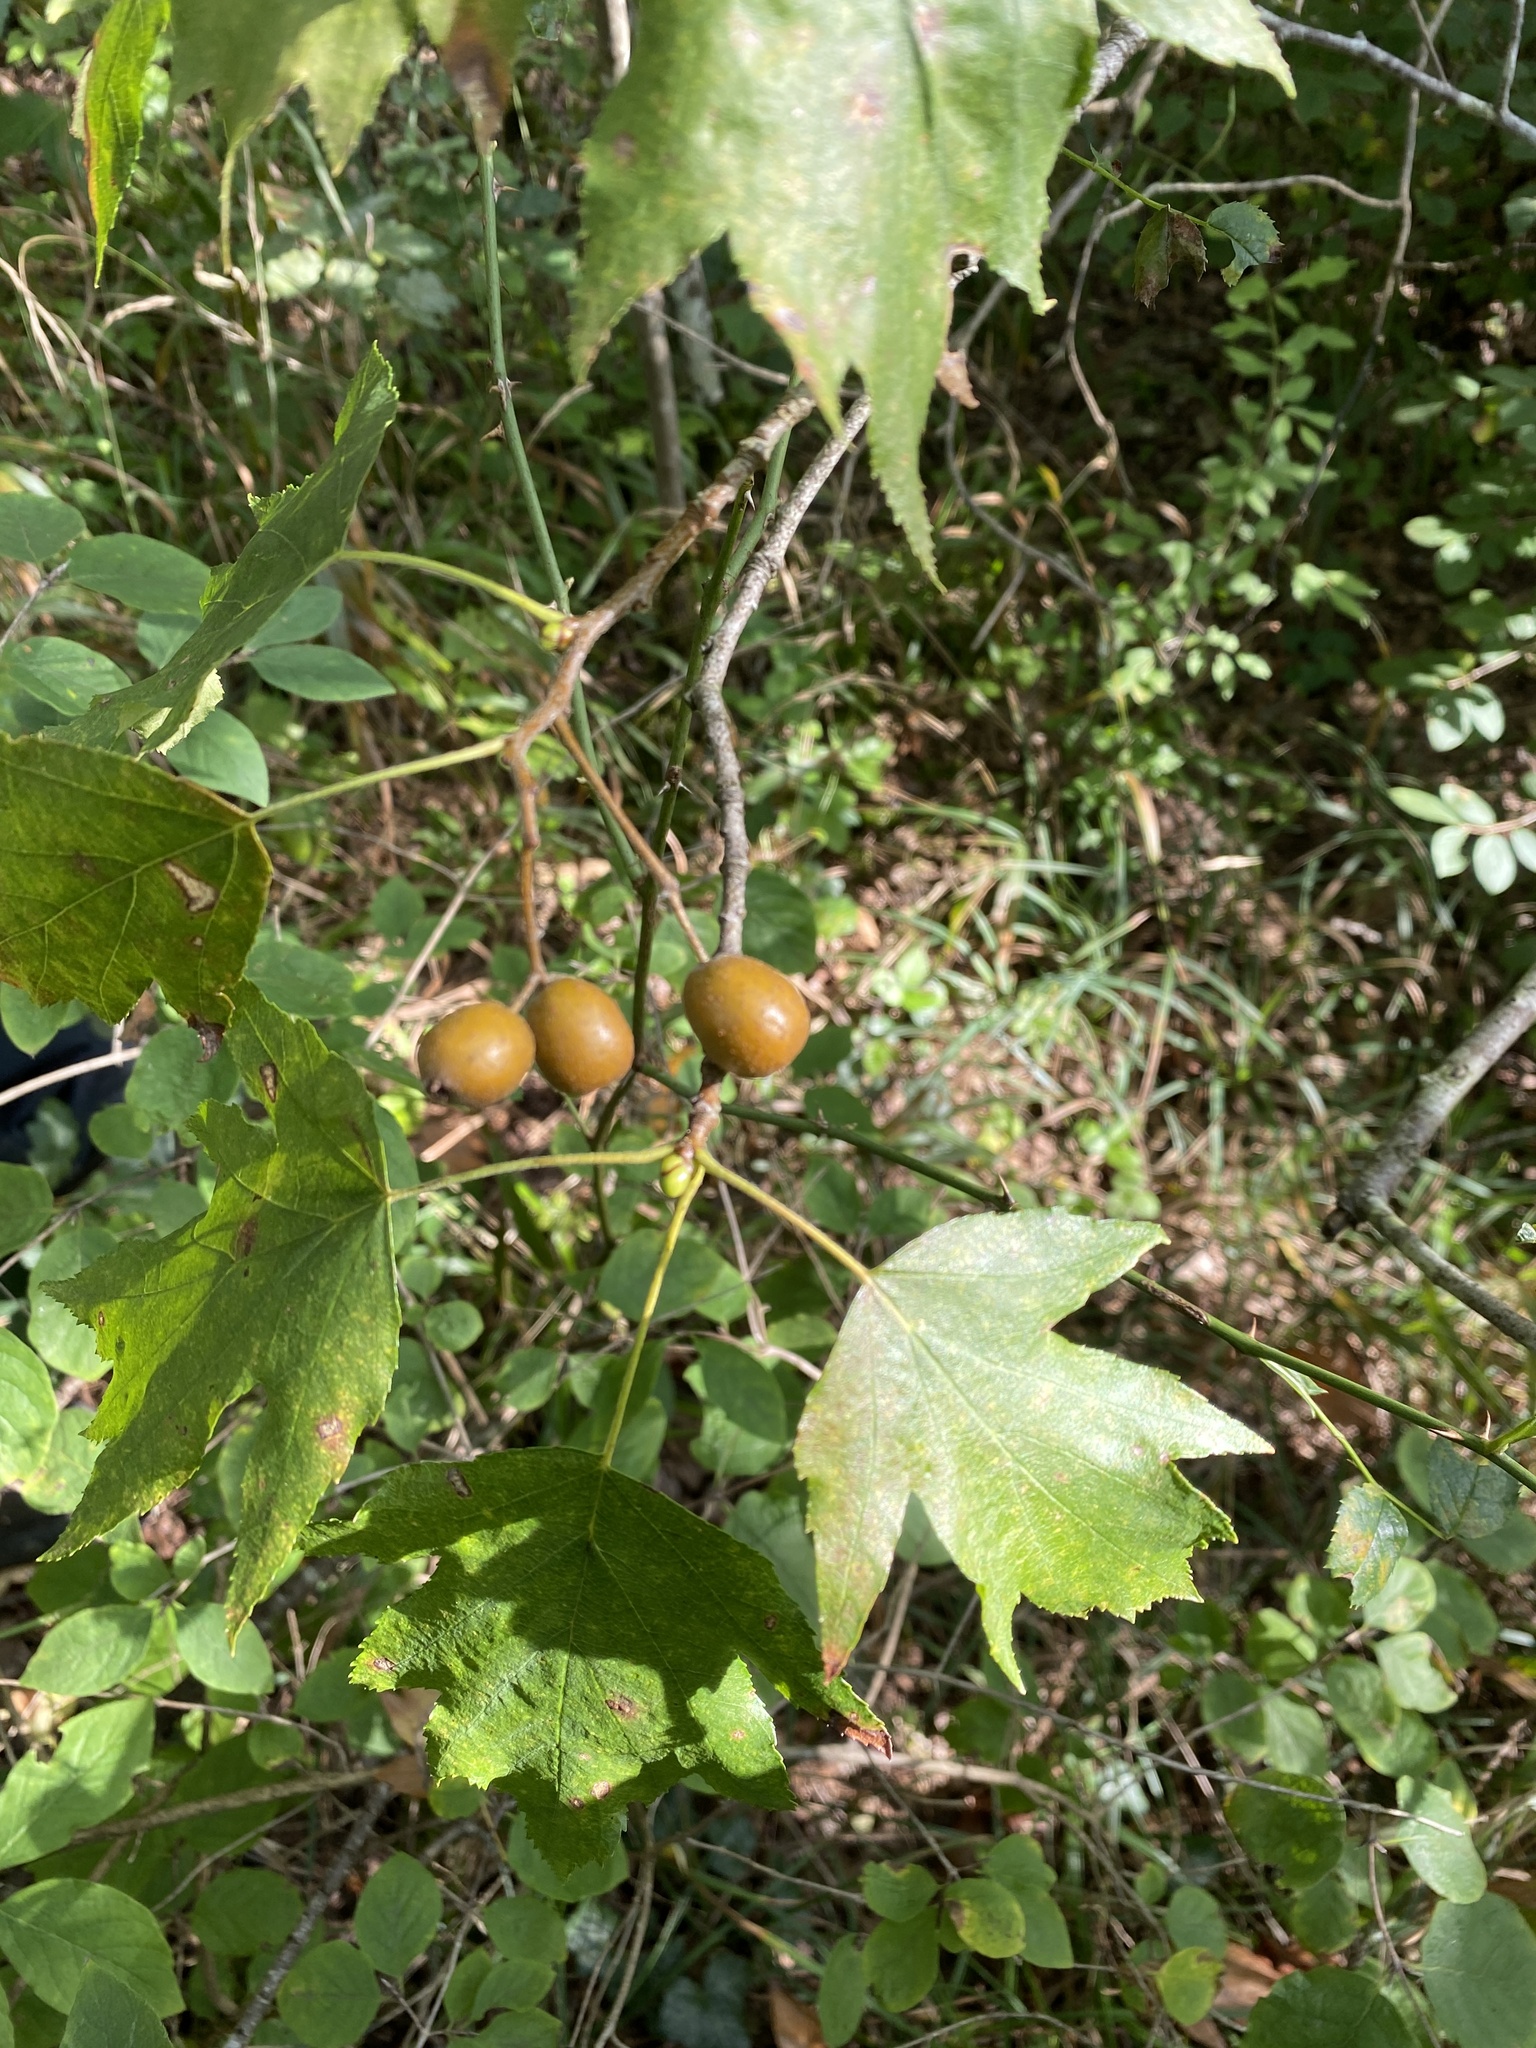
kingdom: Plantae
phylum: Tracheophyta
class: Magnoliopsida
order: Rosales
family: Rosaceae
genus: Torminalis
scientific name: Torminalis glaberrima
